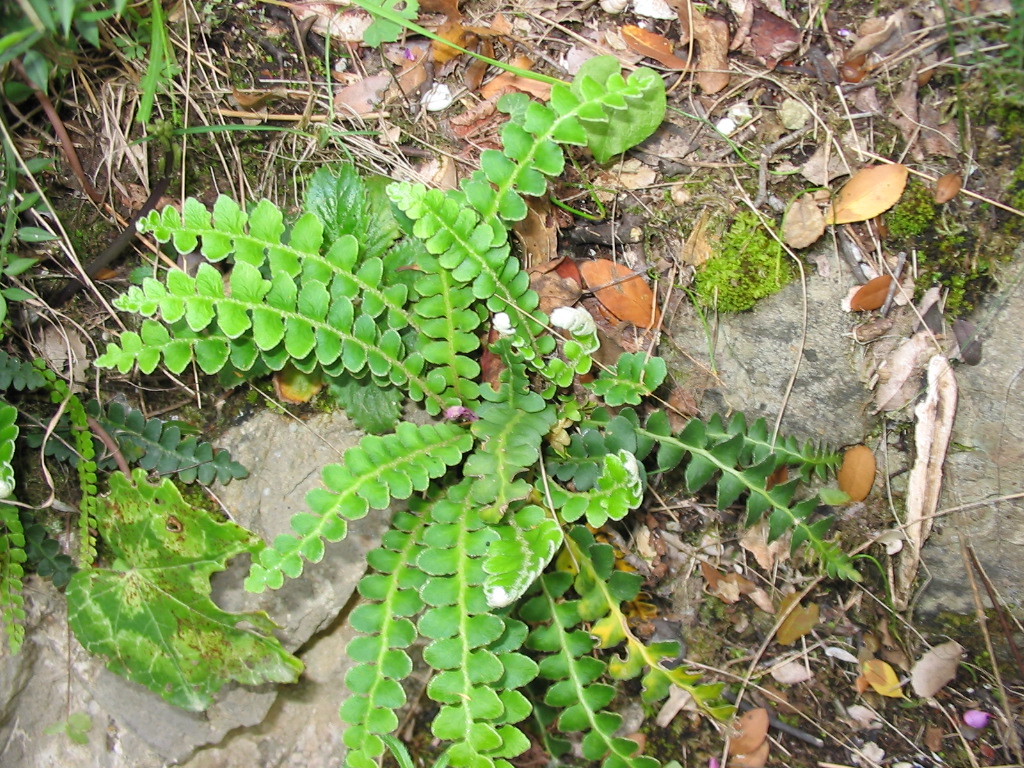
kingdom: Plantae
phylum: Tracheophyta
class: Polypodiopsida
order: Polypodiales
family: Aspleniaceae
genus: Asplenium
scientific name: Asplenium ceterach
